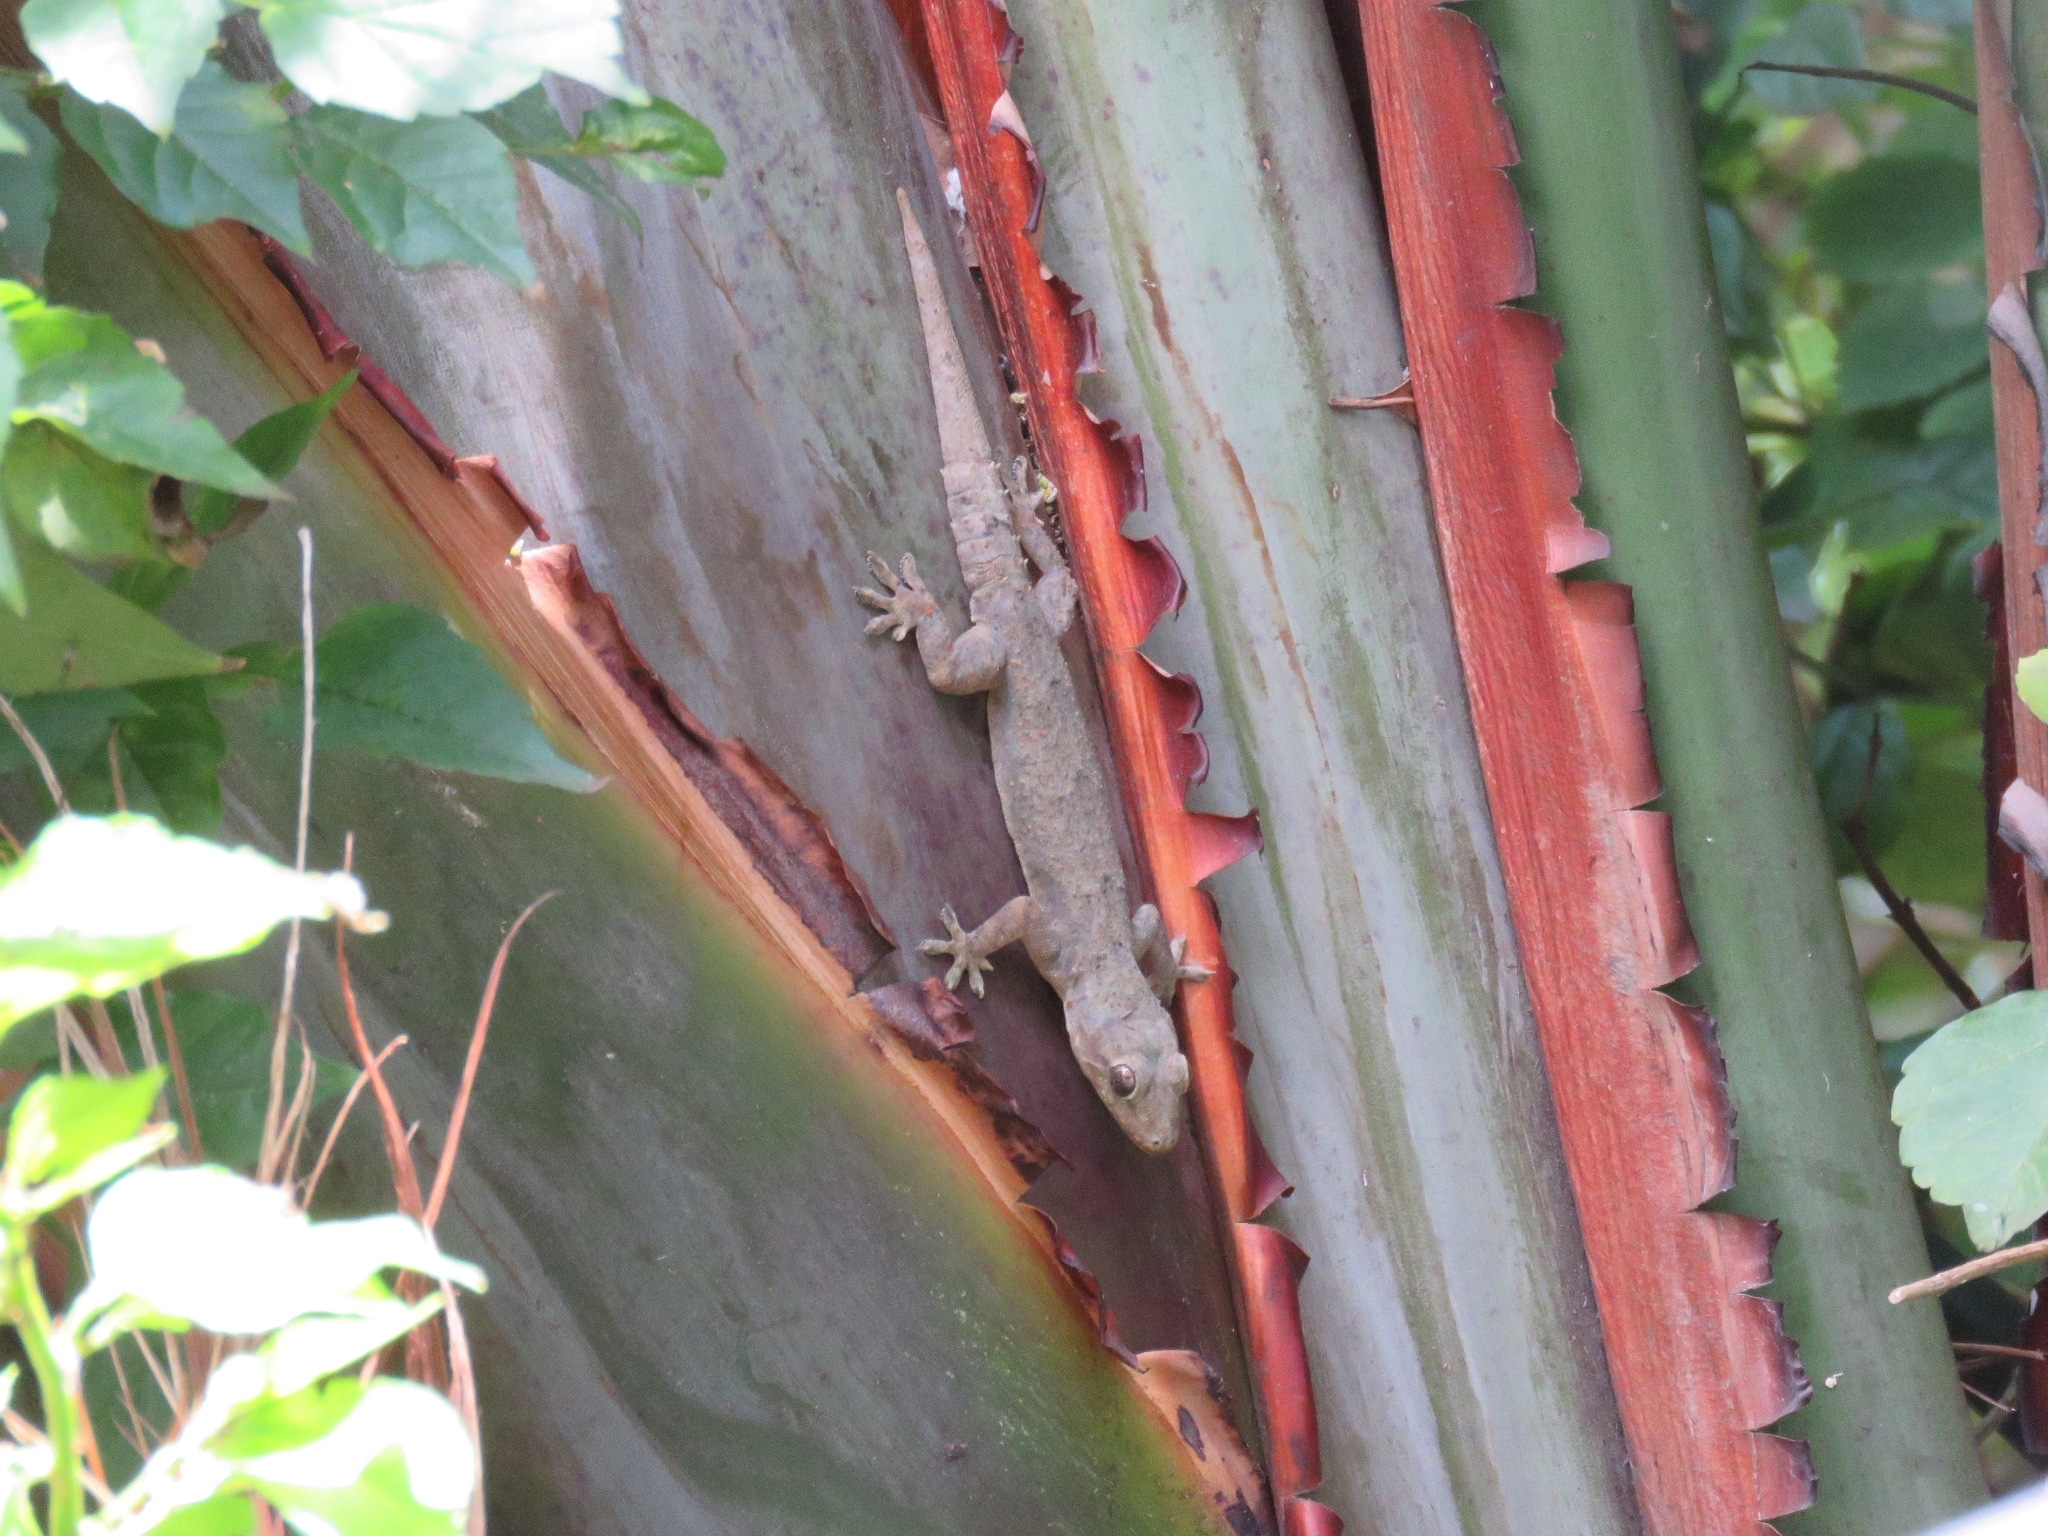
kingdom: Animalia
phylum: Chordata
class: Squamata
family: Gekkonidae
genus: Hemidactylus
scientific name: Hemidactylus mabouia
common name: House gecko
